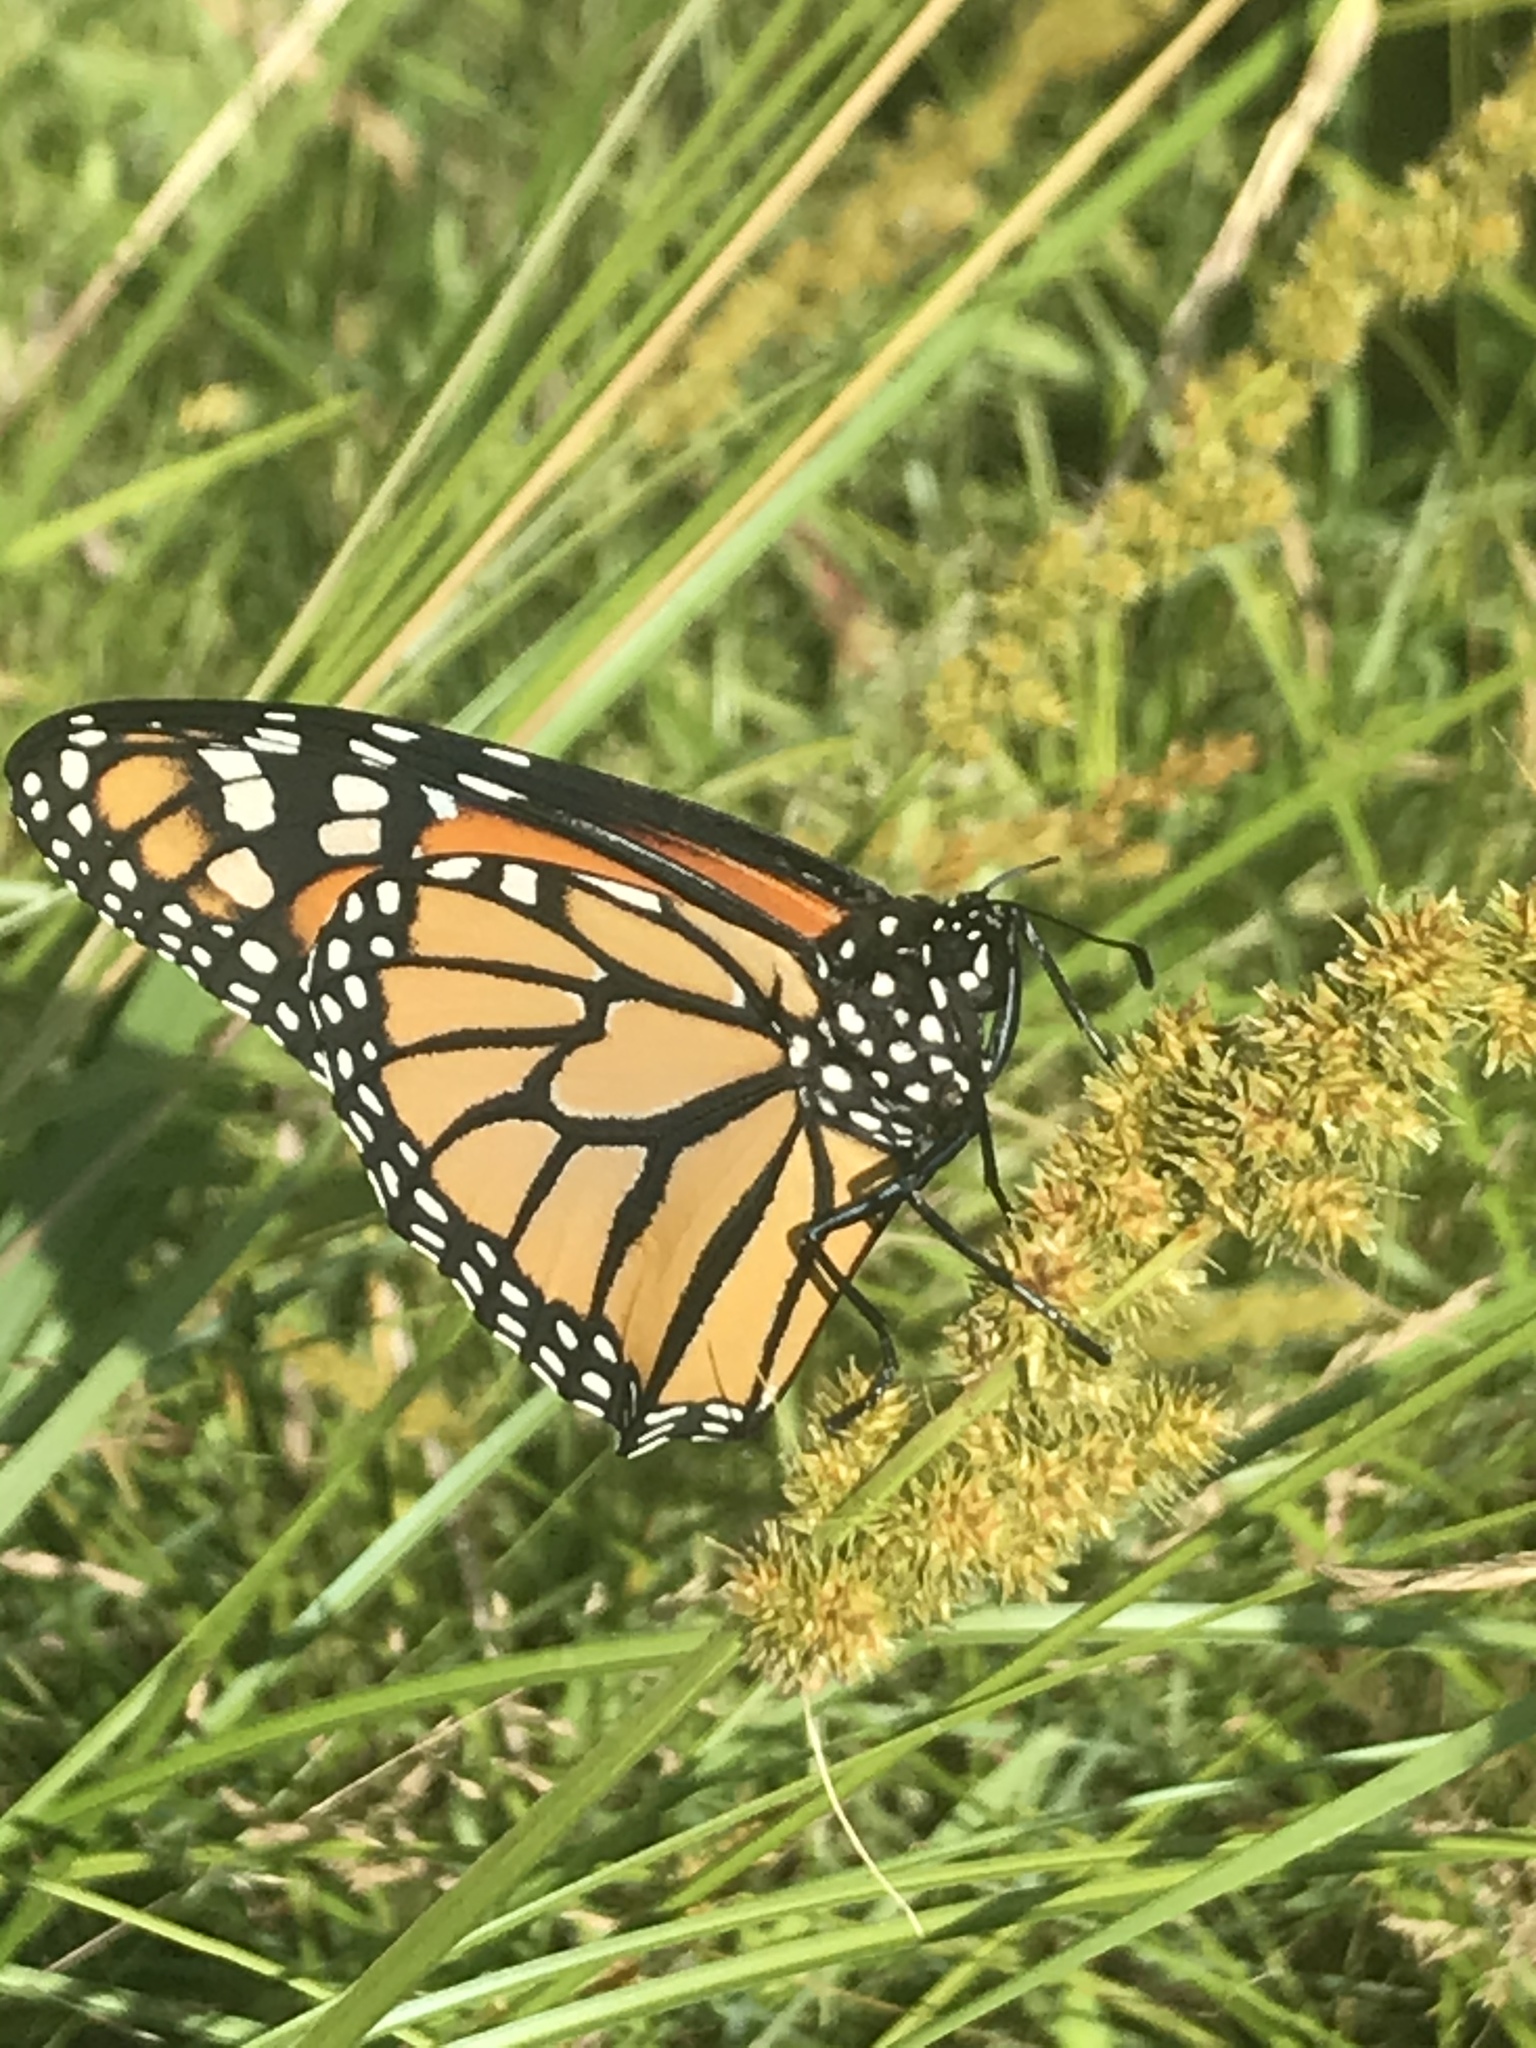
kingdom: Animalia
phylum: Arthropoda
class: Insecta
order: Lepidoptera
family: Nymphalidae
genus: Danaus
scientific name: Danaus plexippus
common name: Monarch
